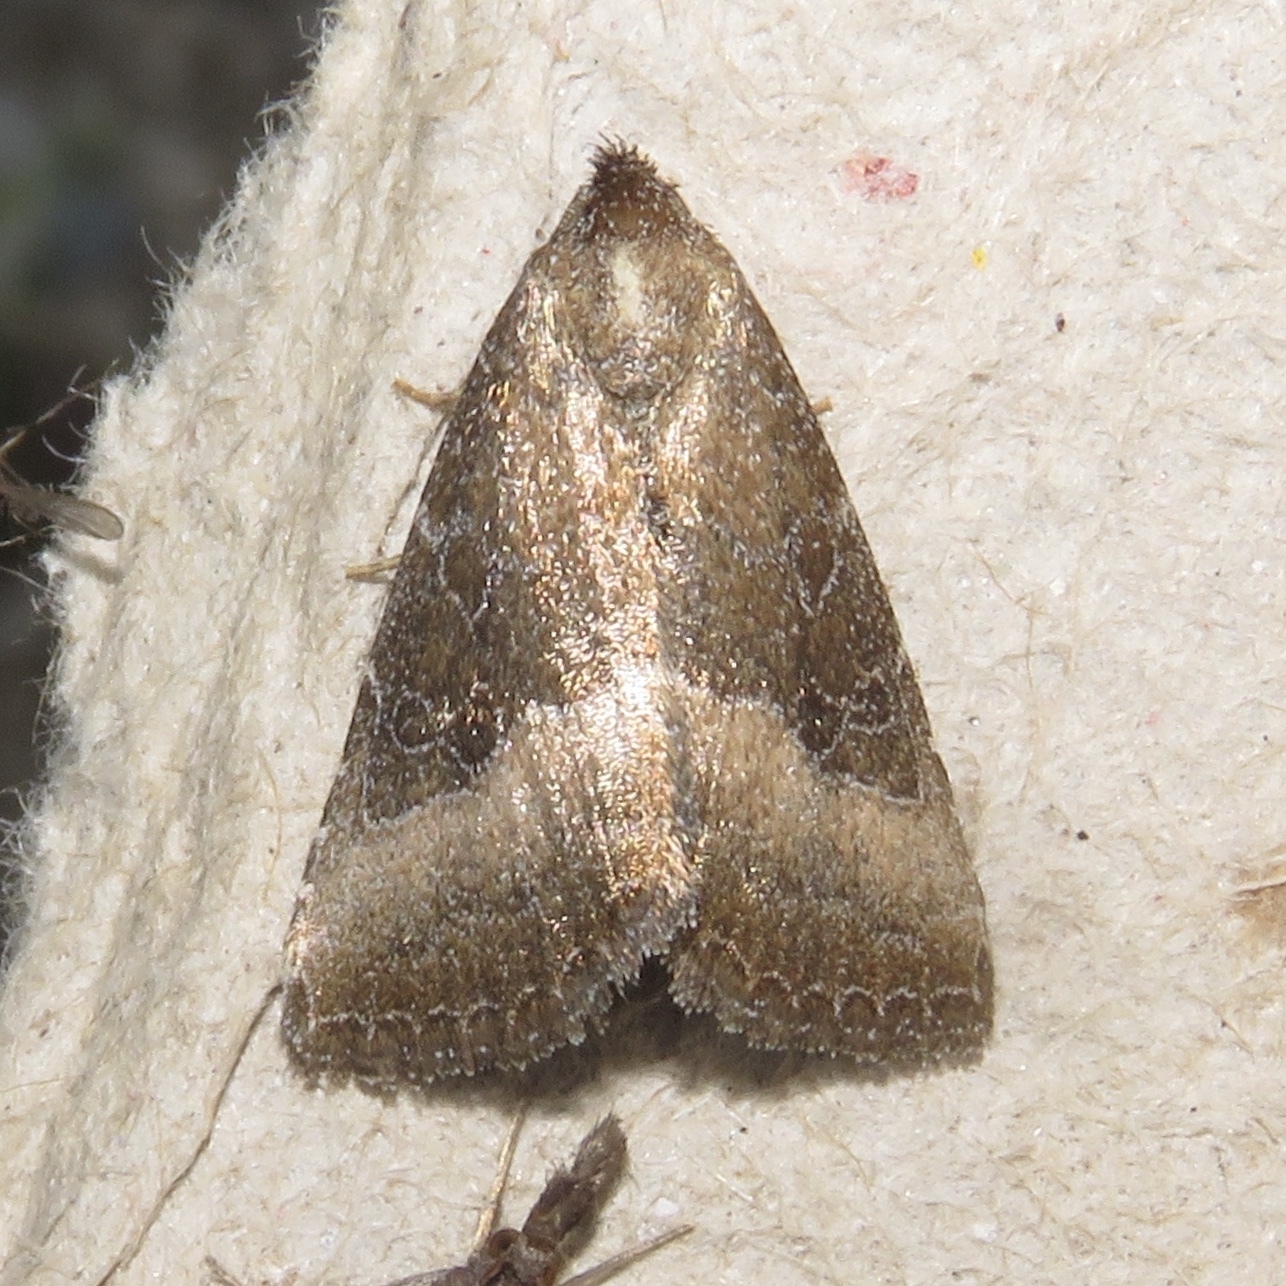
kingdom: Animalia
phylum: Arthropoda
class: Insecta
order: Lepidoptera
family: Noctuidae
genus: Ogdoconta
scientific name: Ogdoconta cinereola
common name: Common pinkband
